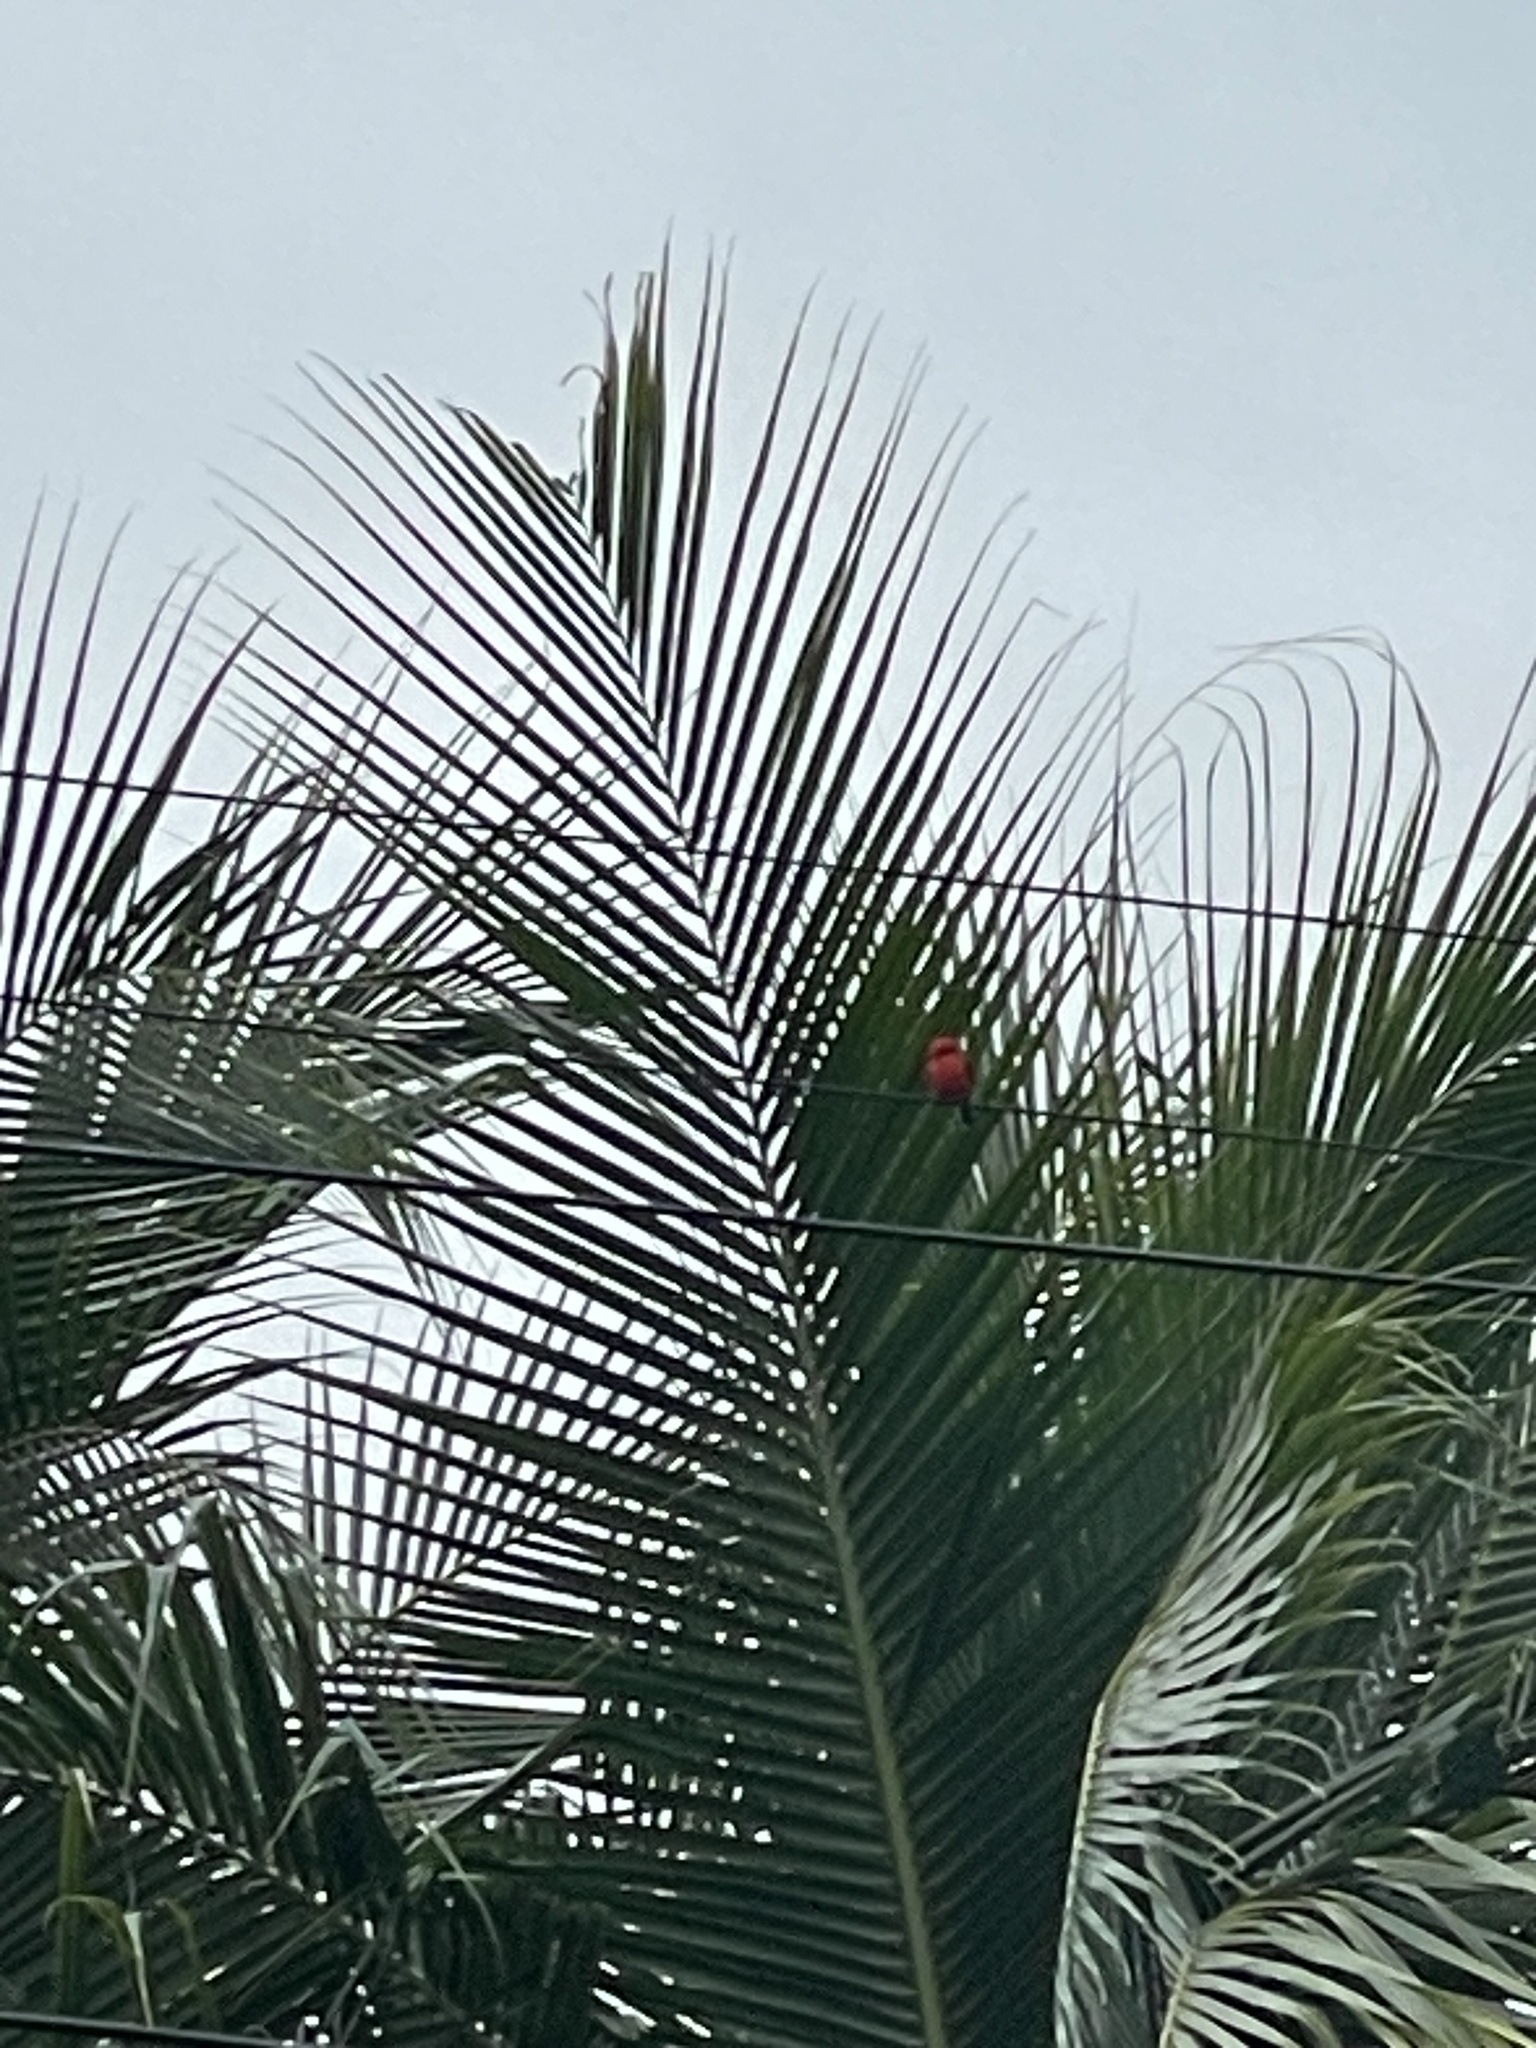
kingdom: Animalia
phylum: Chordata
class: Aves
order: Passeriformes
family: Tyrannidae
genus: Pyrocephalus
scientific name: Pyrocephalus rubinus
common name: Vermilion flycatcher
